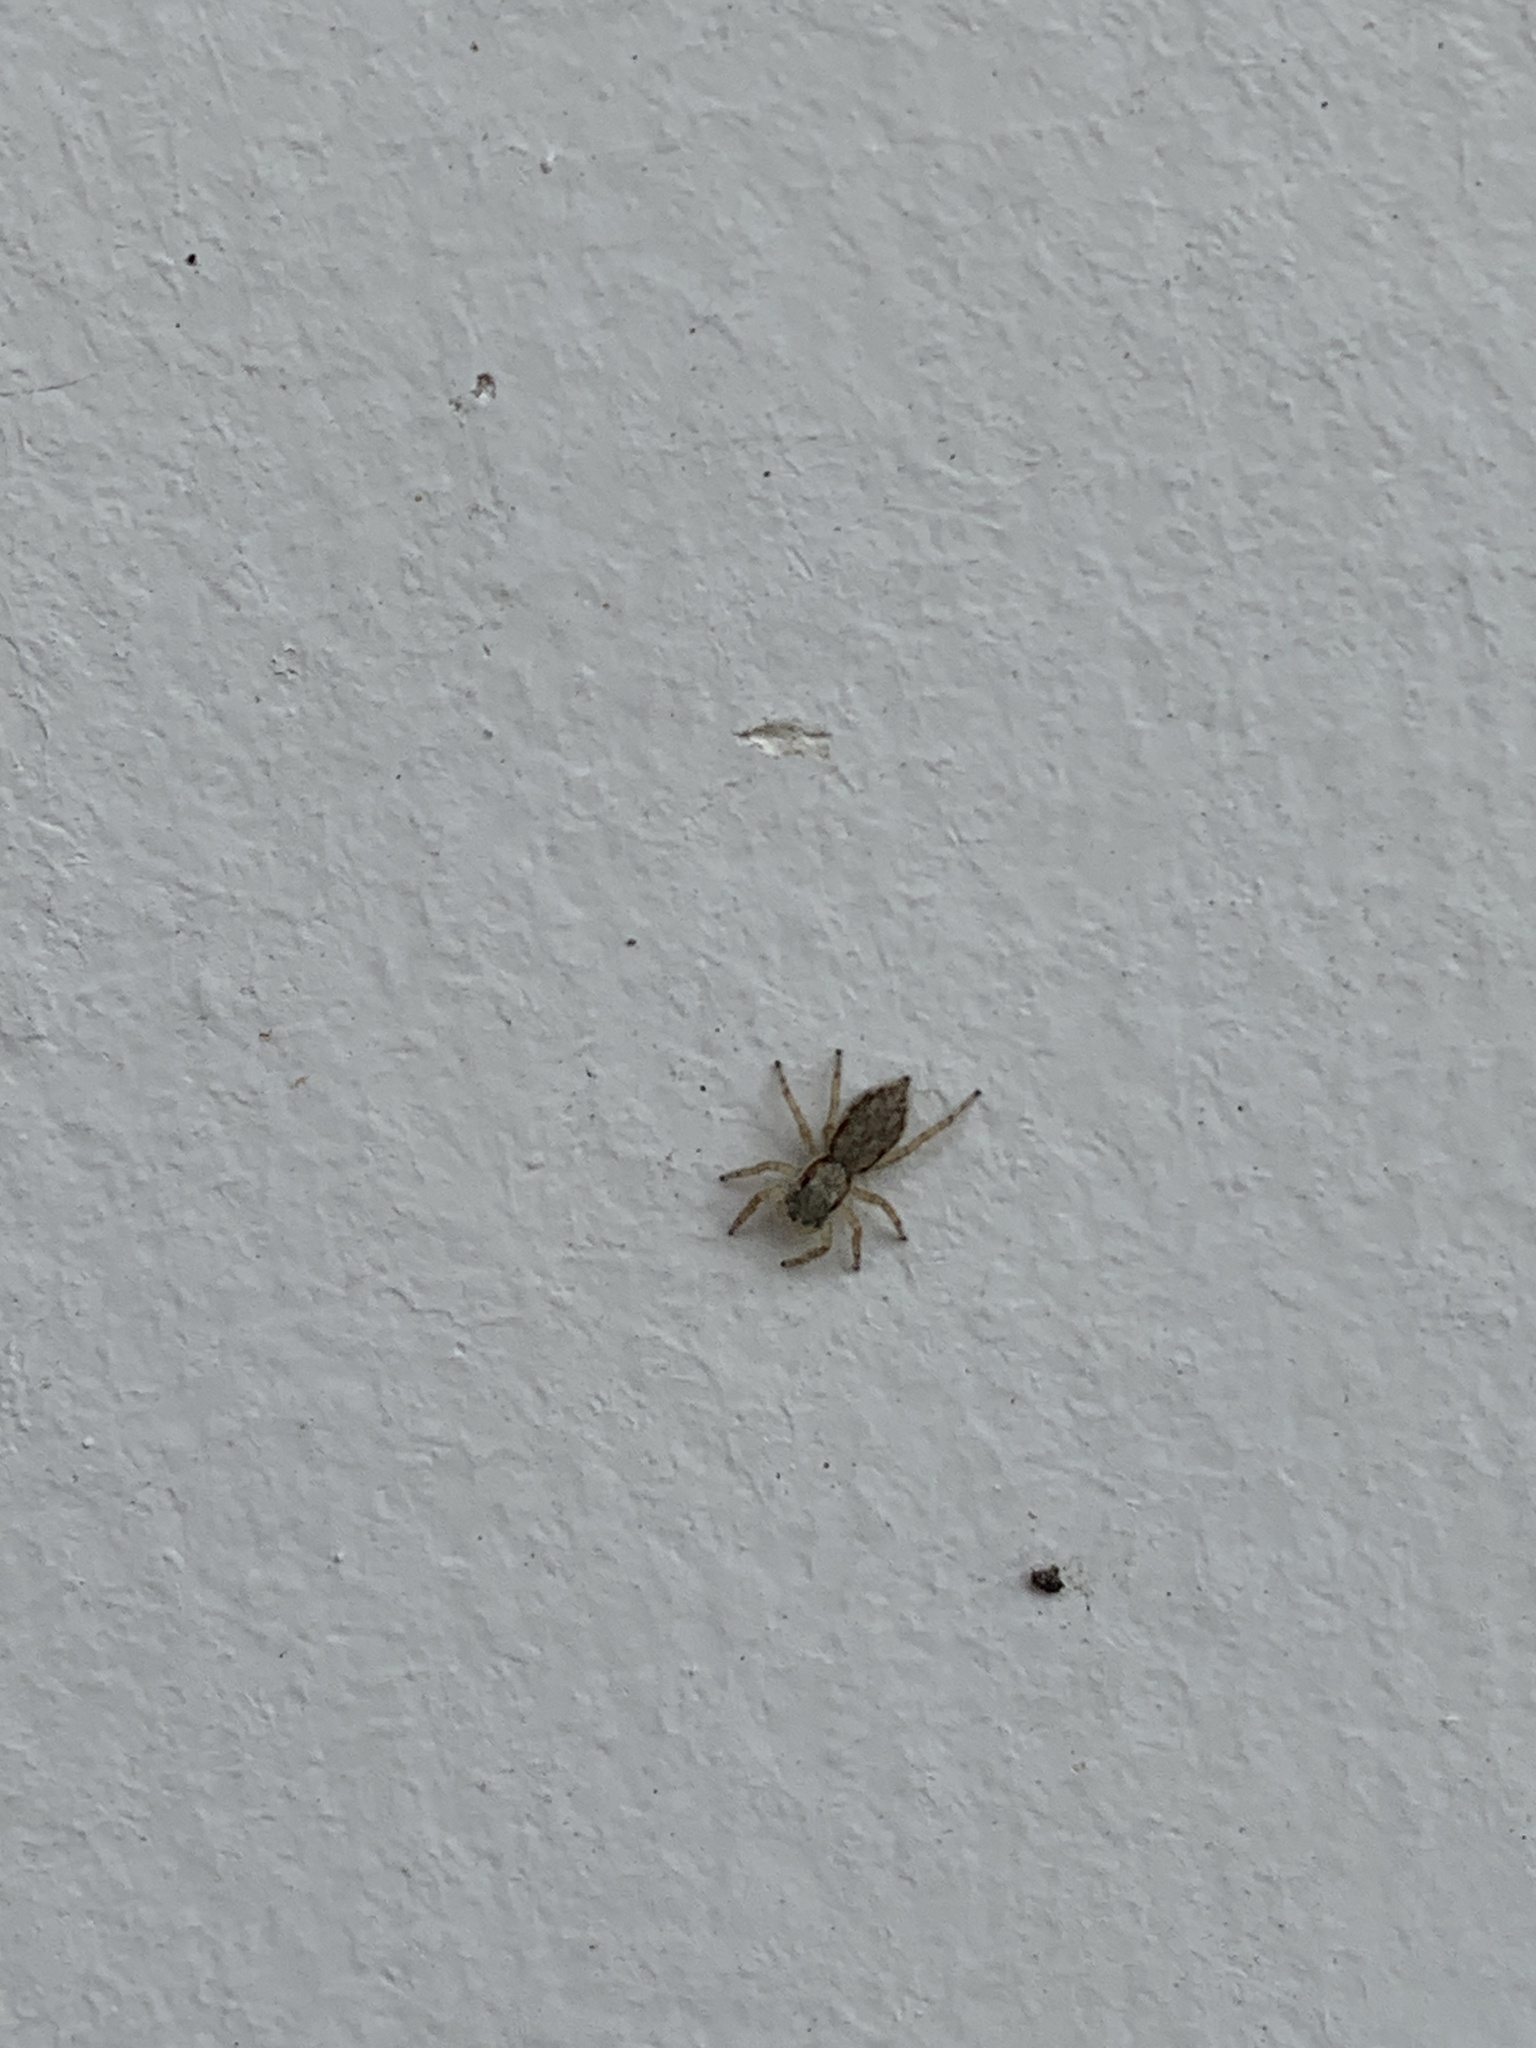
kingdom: Animalia
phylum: Arthropoda
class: Arachnida
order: Araneae
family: Salticidae
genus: Menemerus
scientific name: Menemerus bivittatus
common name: Gray wall jumper
